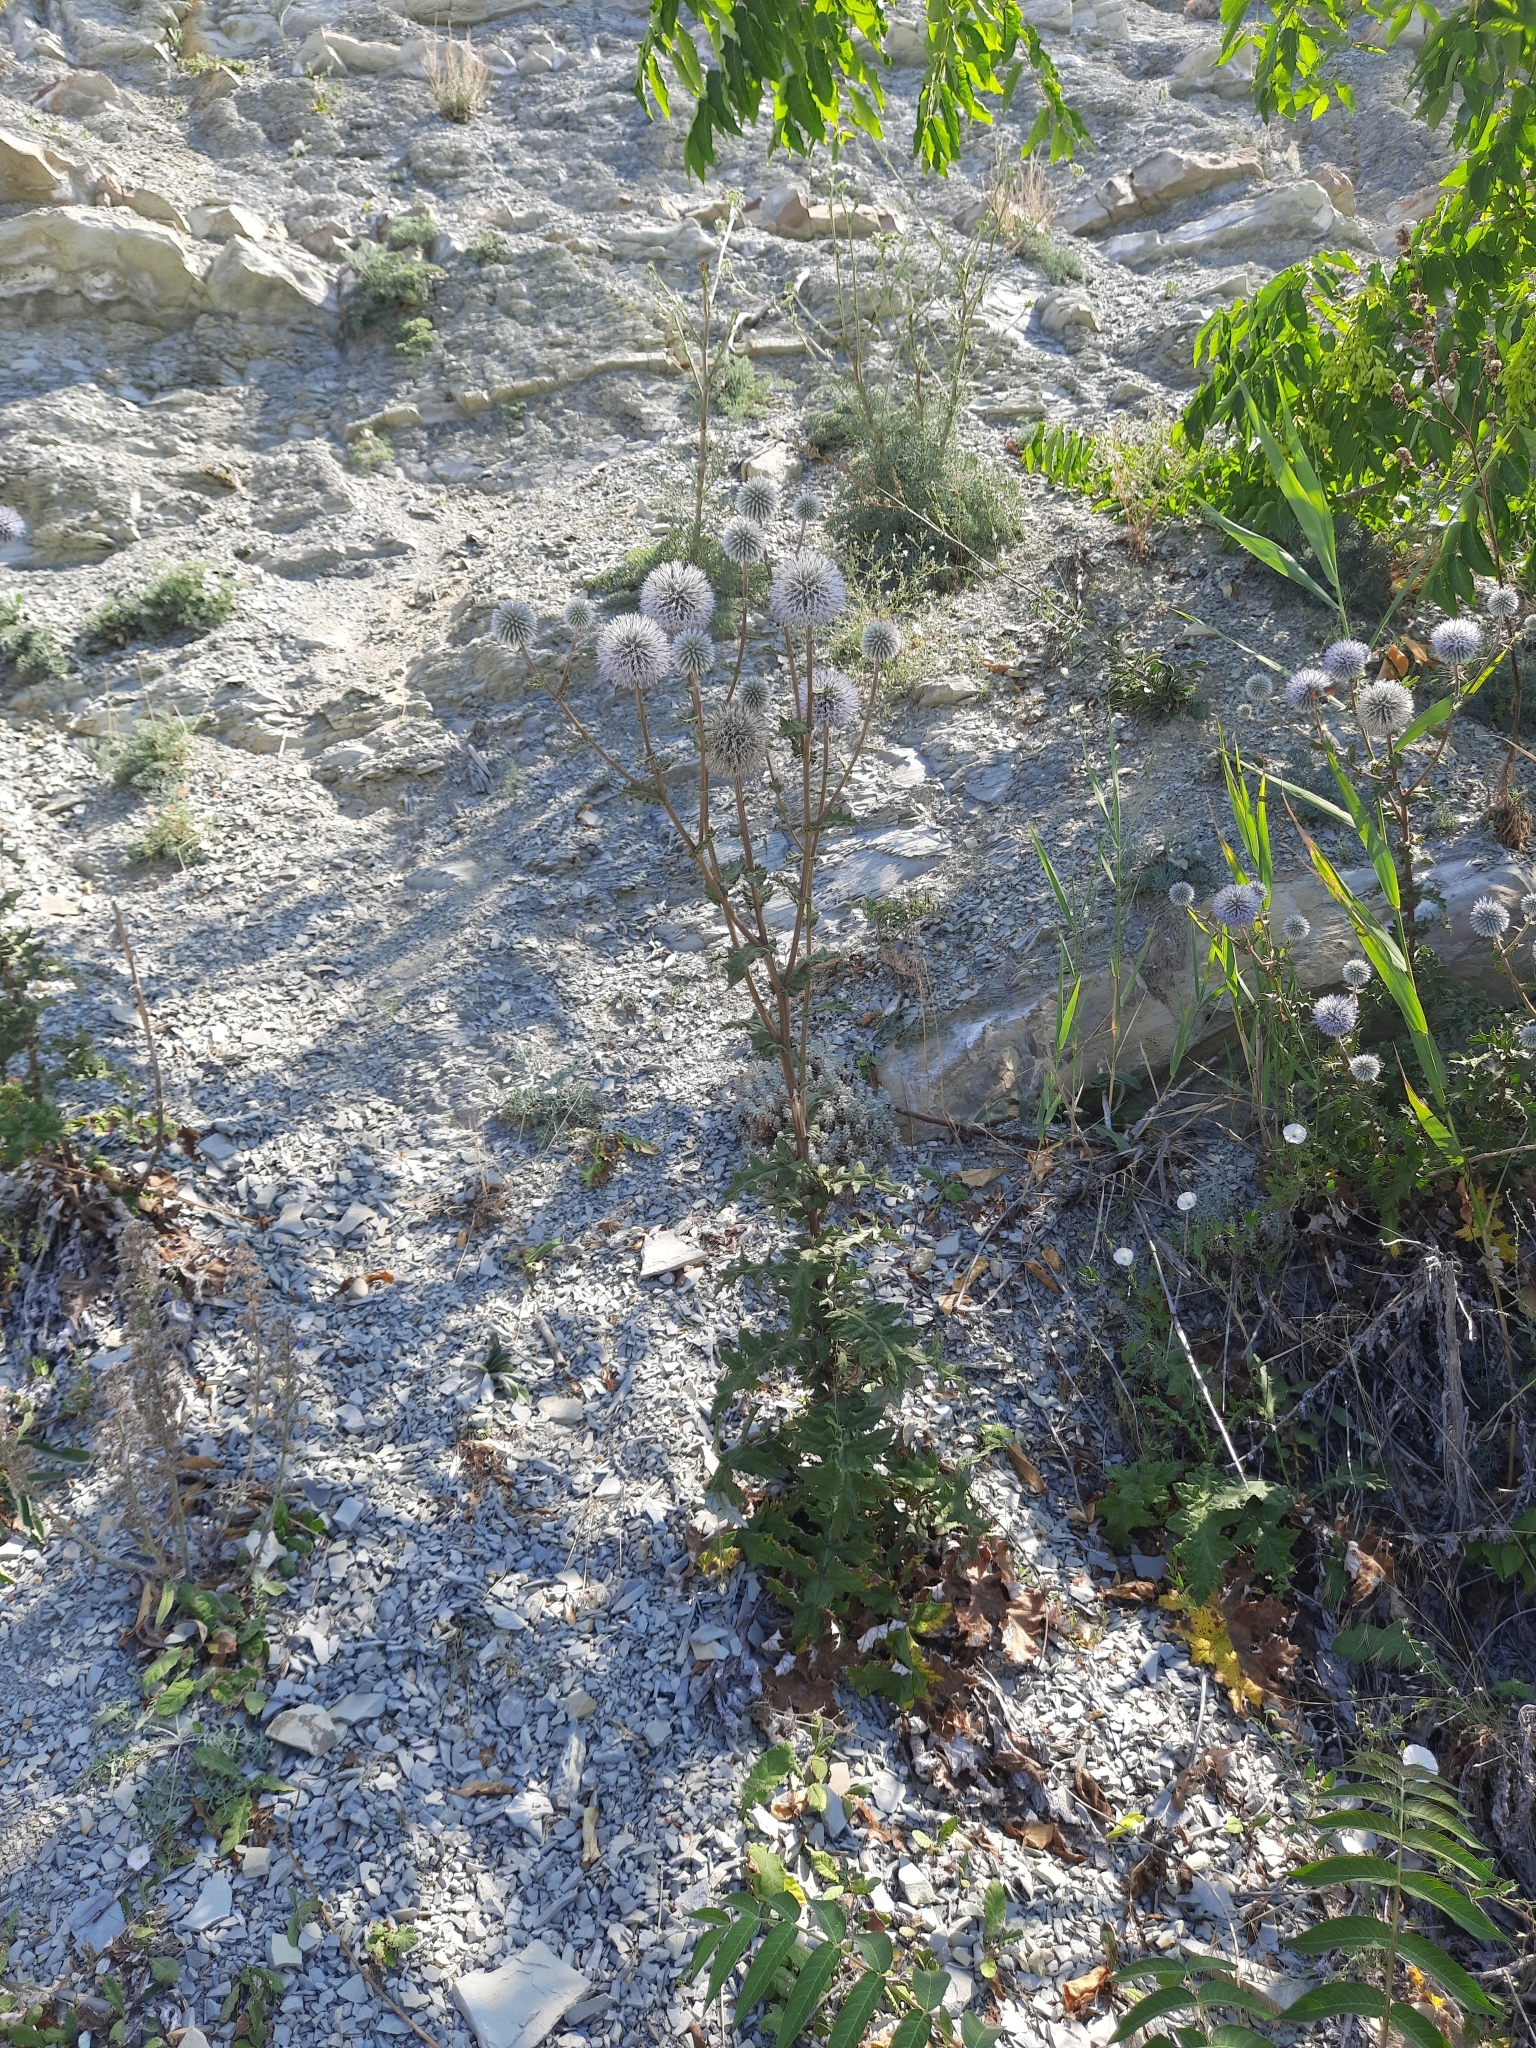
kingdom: Plantae
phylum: Tracheophyta
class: Magnoliopsida
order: Asterales
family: Asteraceae
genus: Echinops
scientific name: Echinops sphaerocephalus
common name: Glandular globe-thistle
